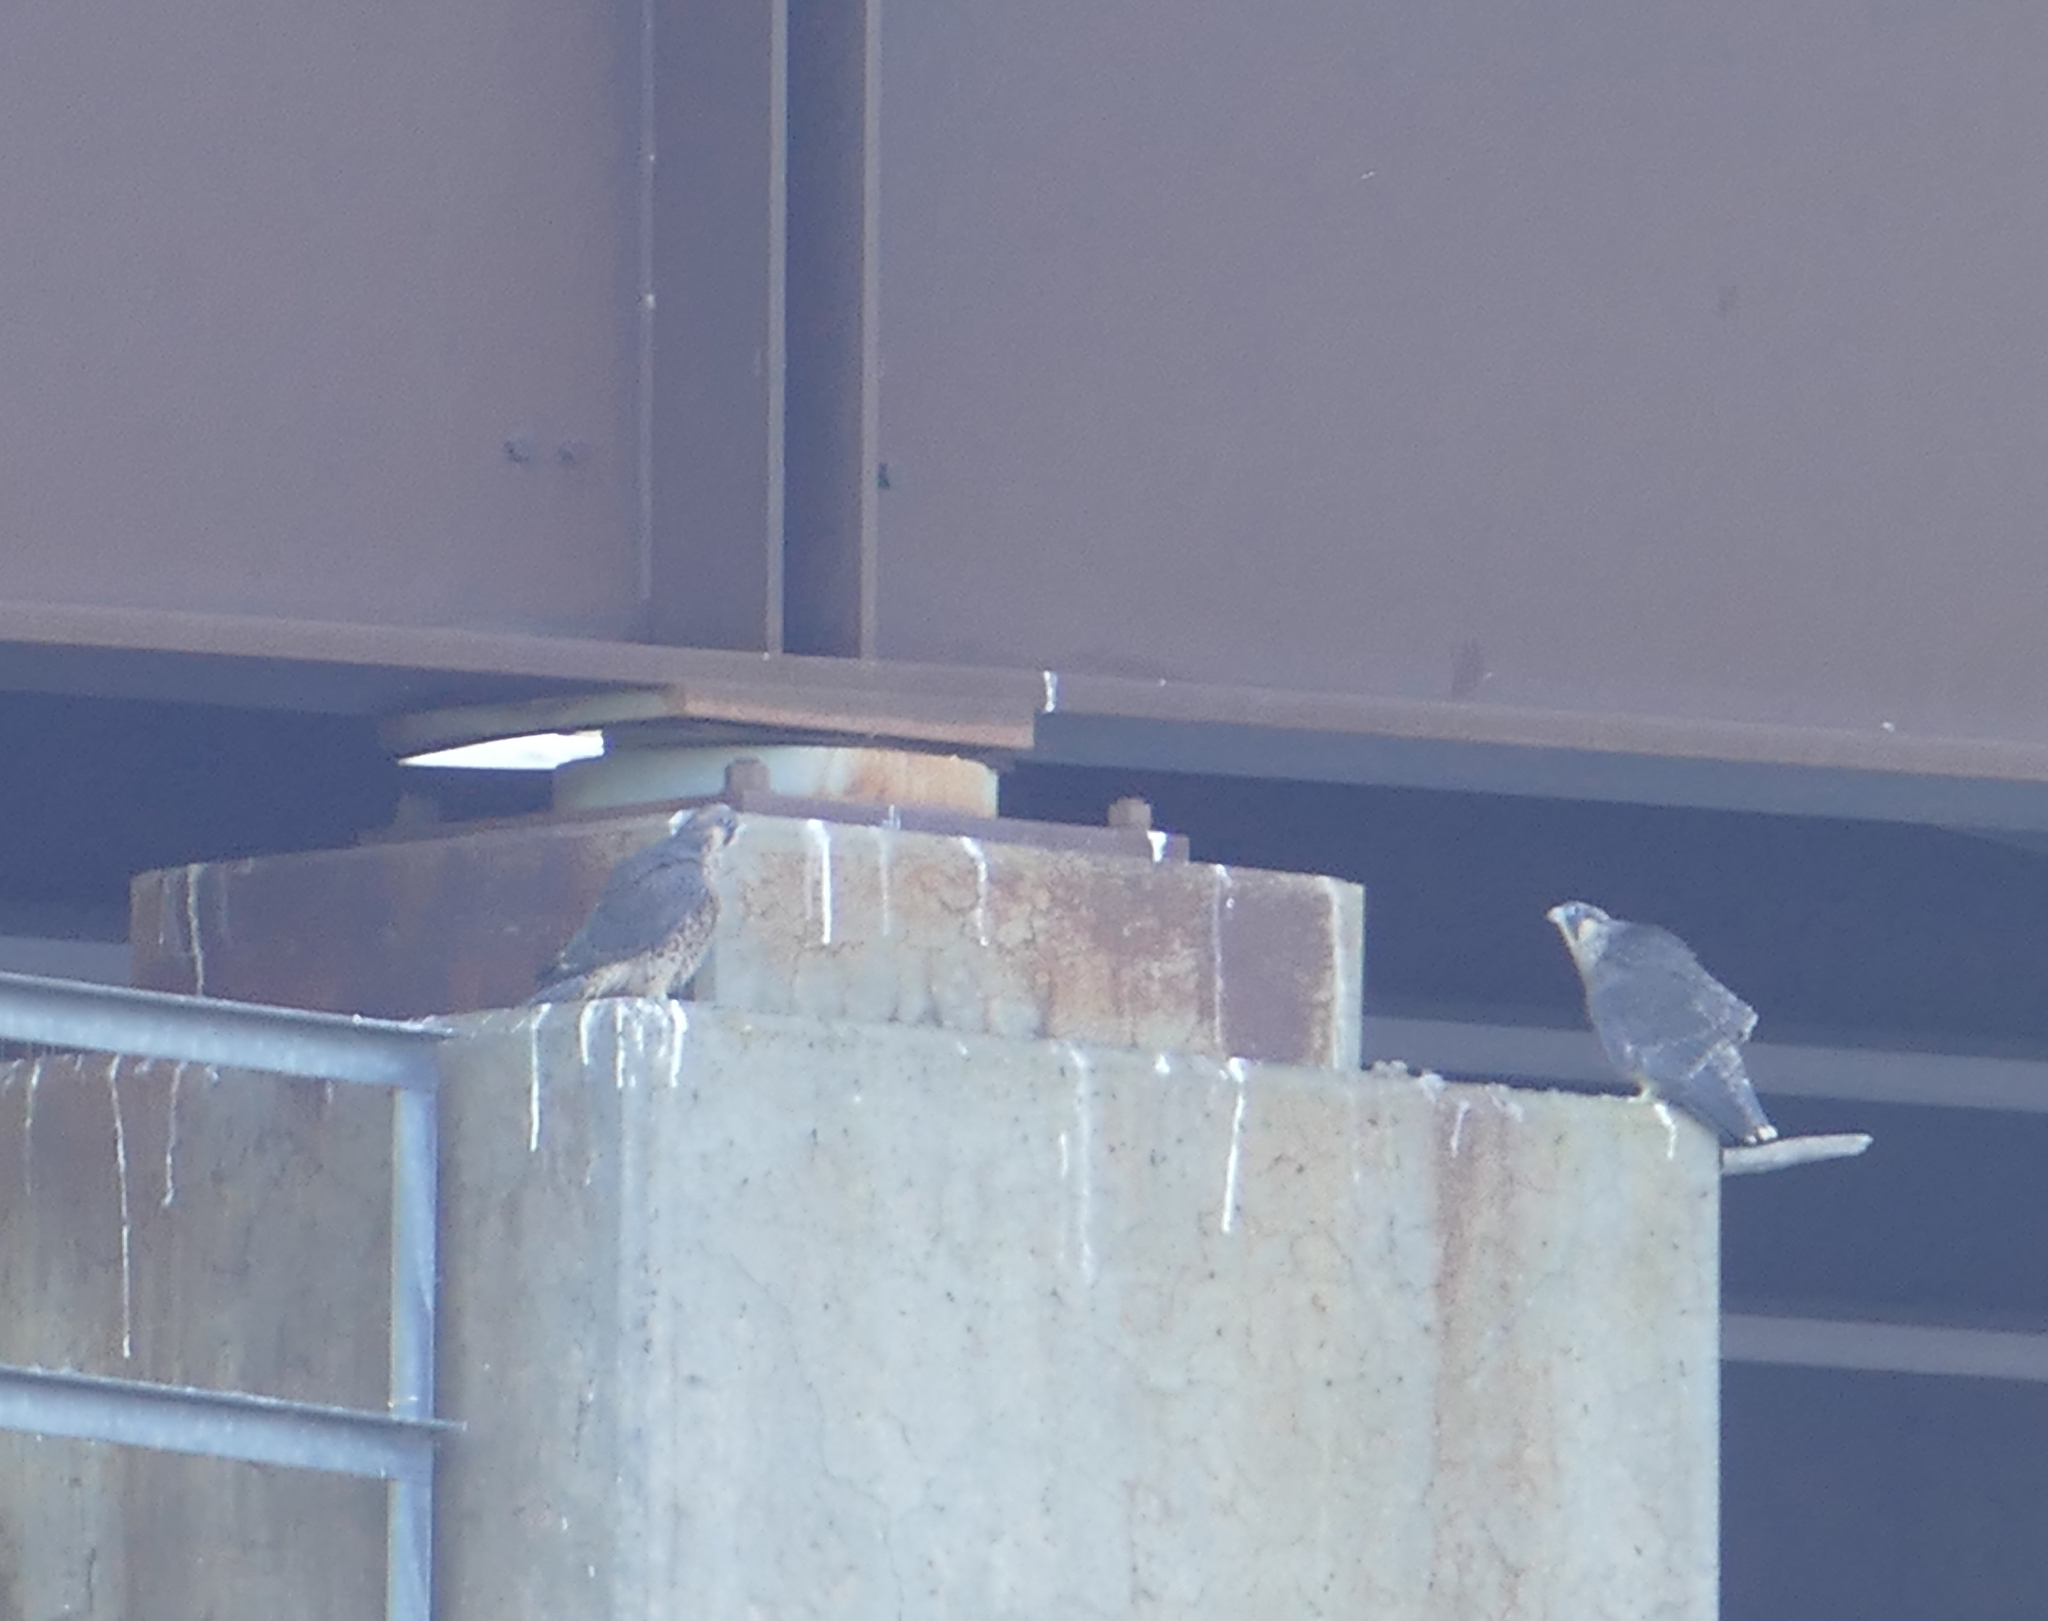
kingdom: Animalia
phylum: Chordata
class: Aves
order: Falconiformes
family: Falconidae
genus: Falco
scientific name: Falco peregrinus
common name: Peregrine falcon
